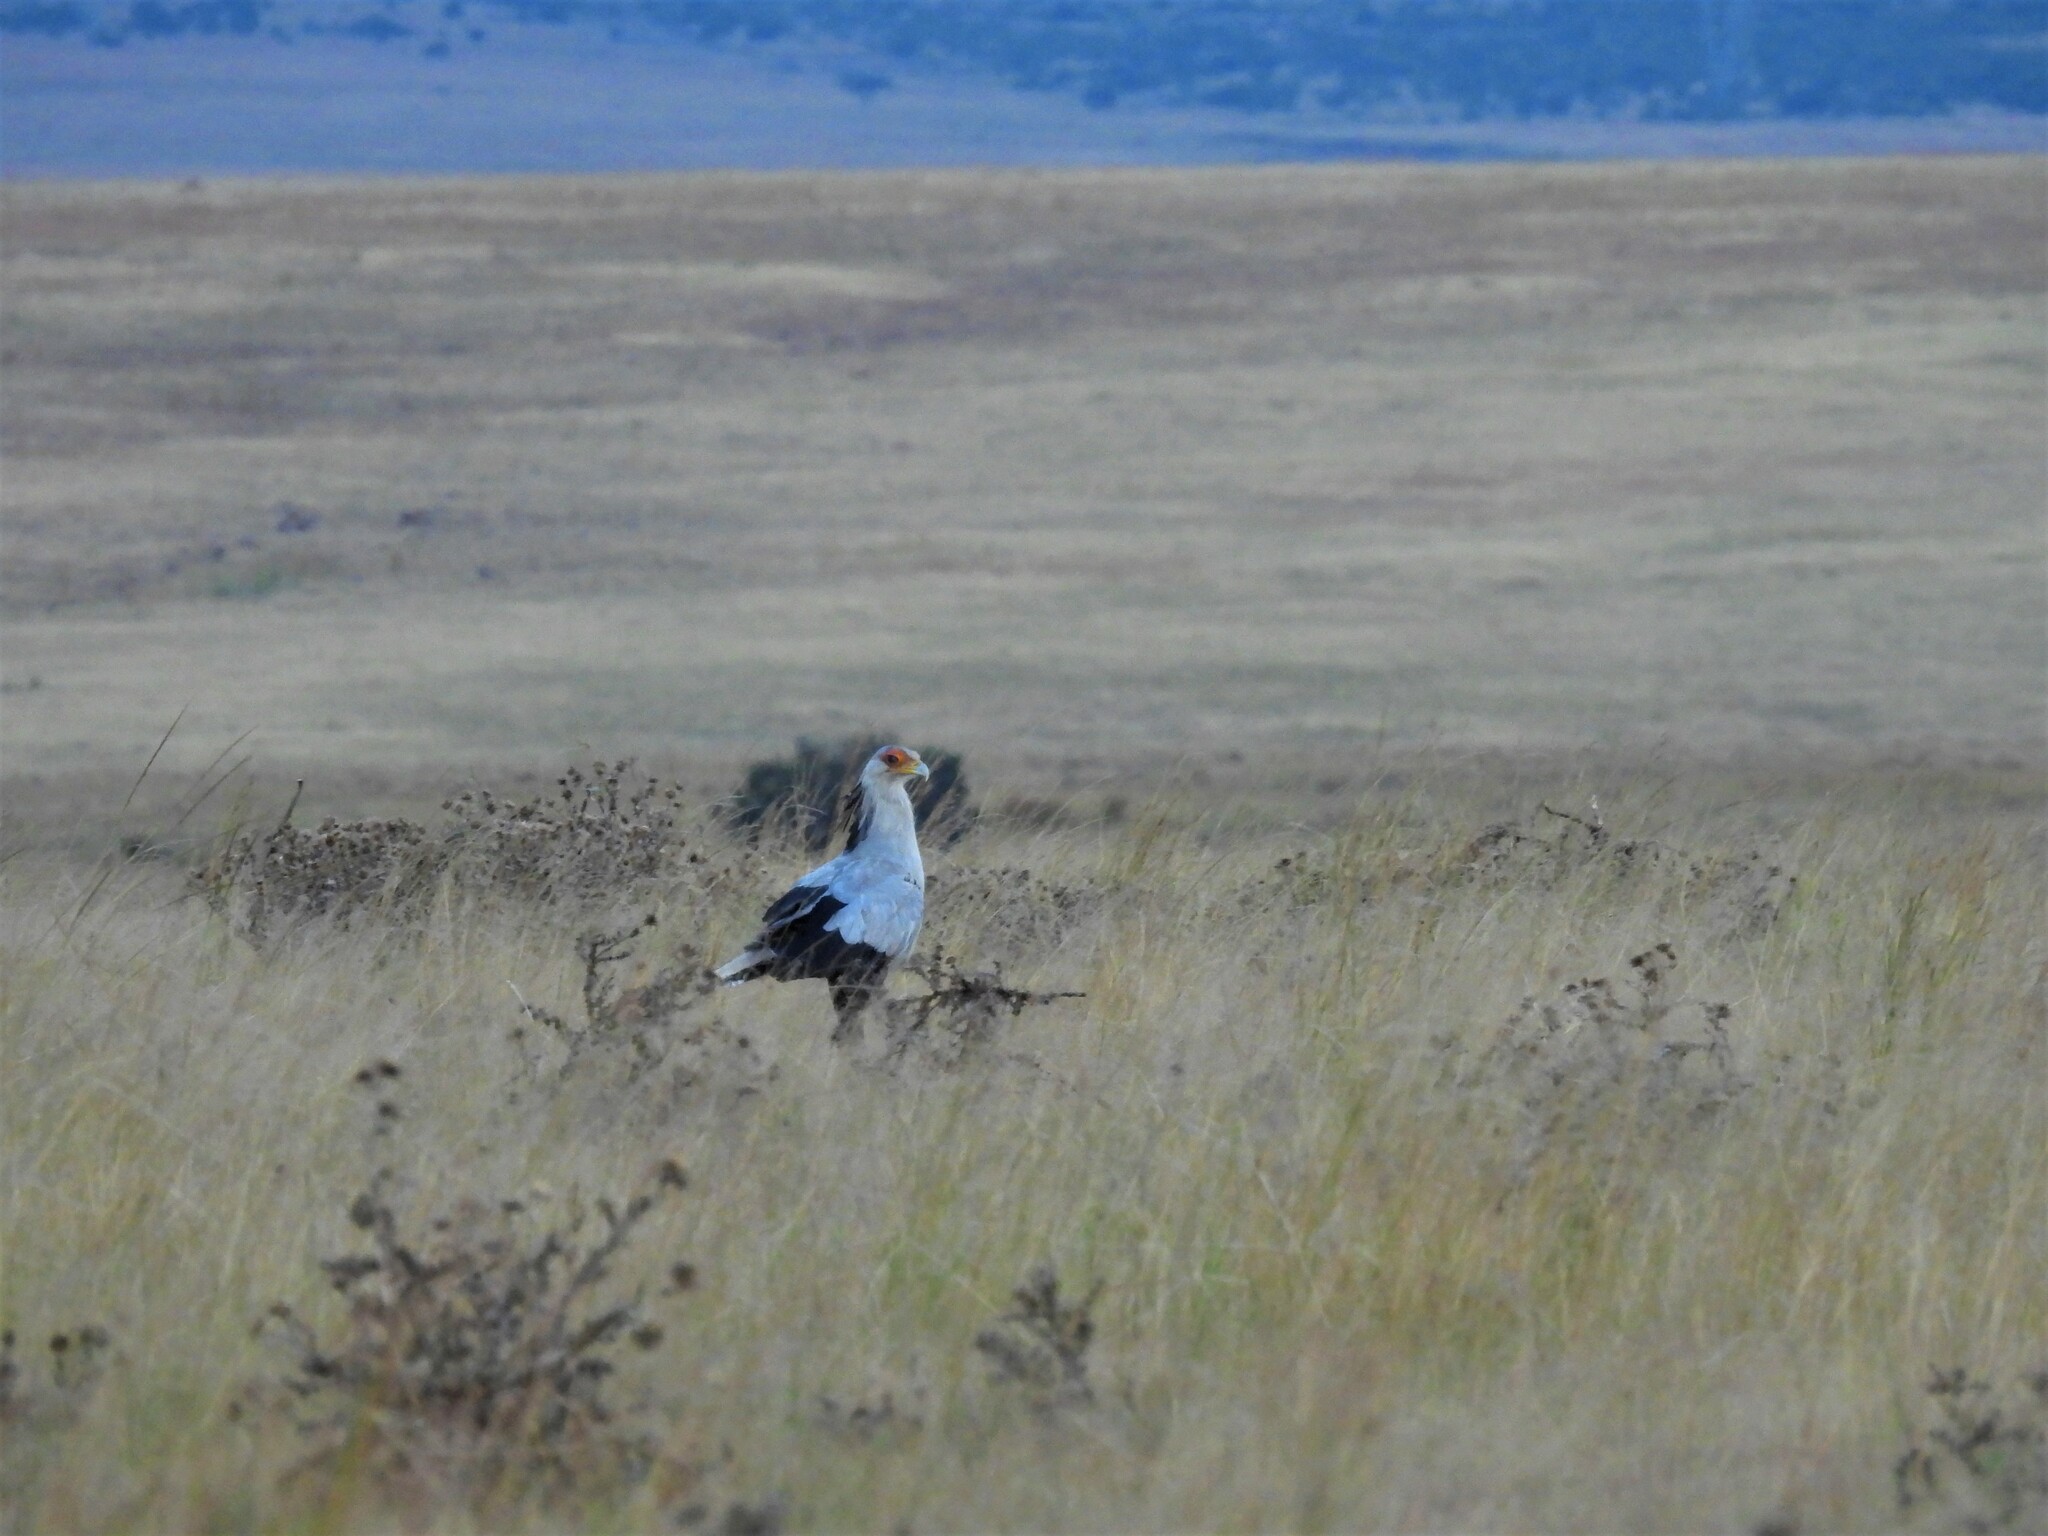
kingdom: Animalia
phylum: Chordata
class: Aves
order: Accipitriformes
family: Sagittariidae
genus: Sagittarius
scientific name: Sagittarius serpentarius
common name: Secretarybird
